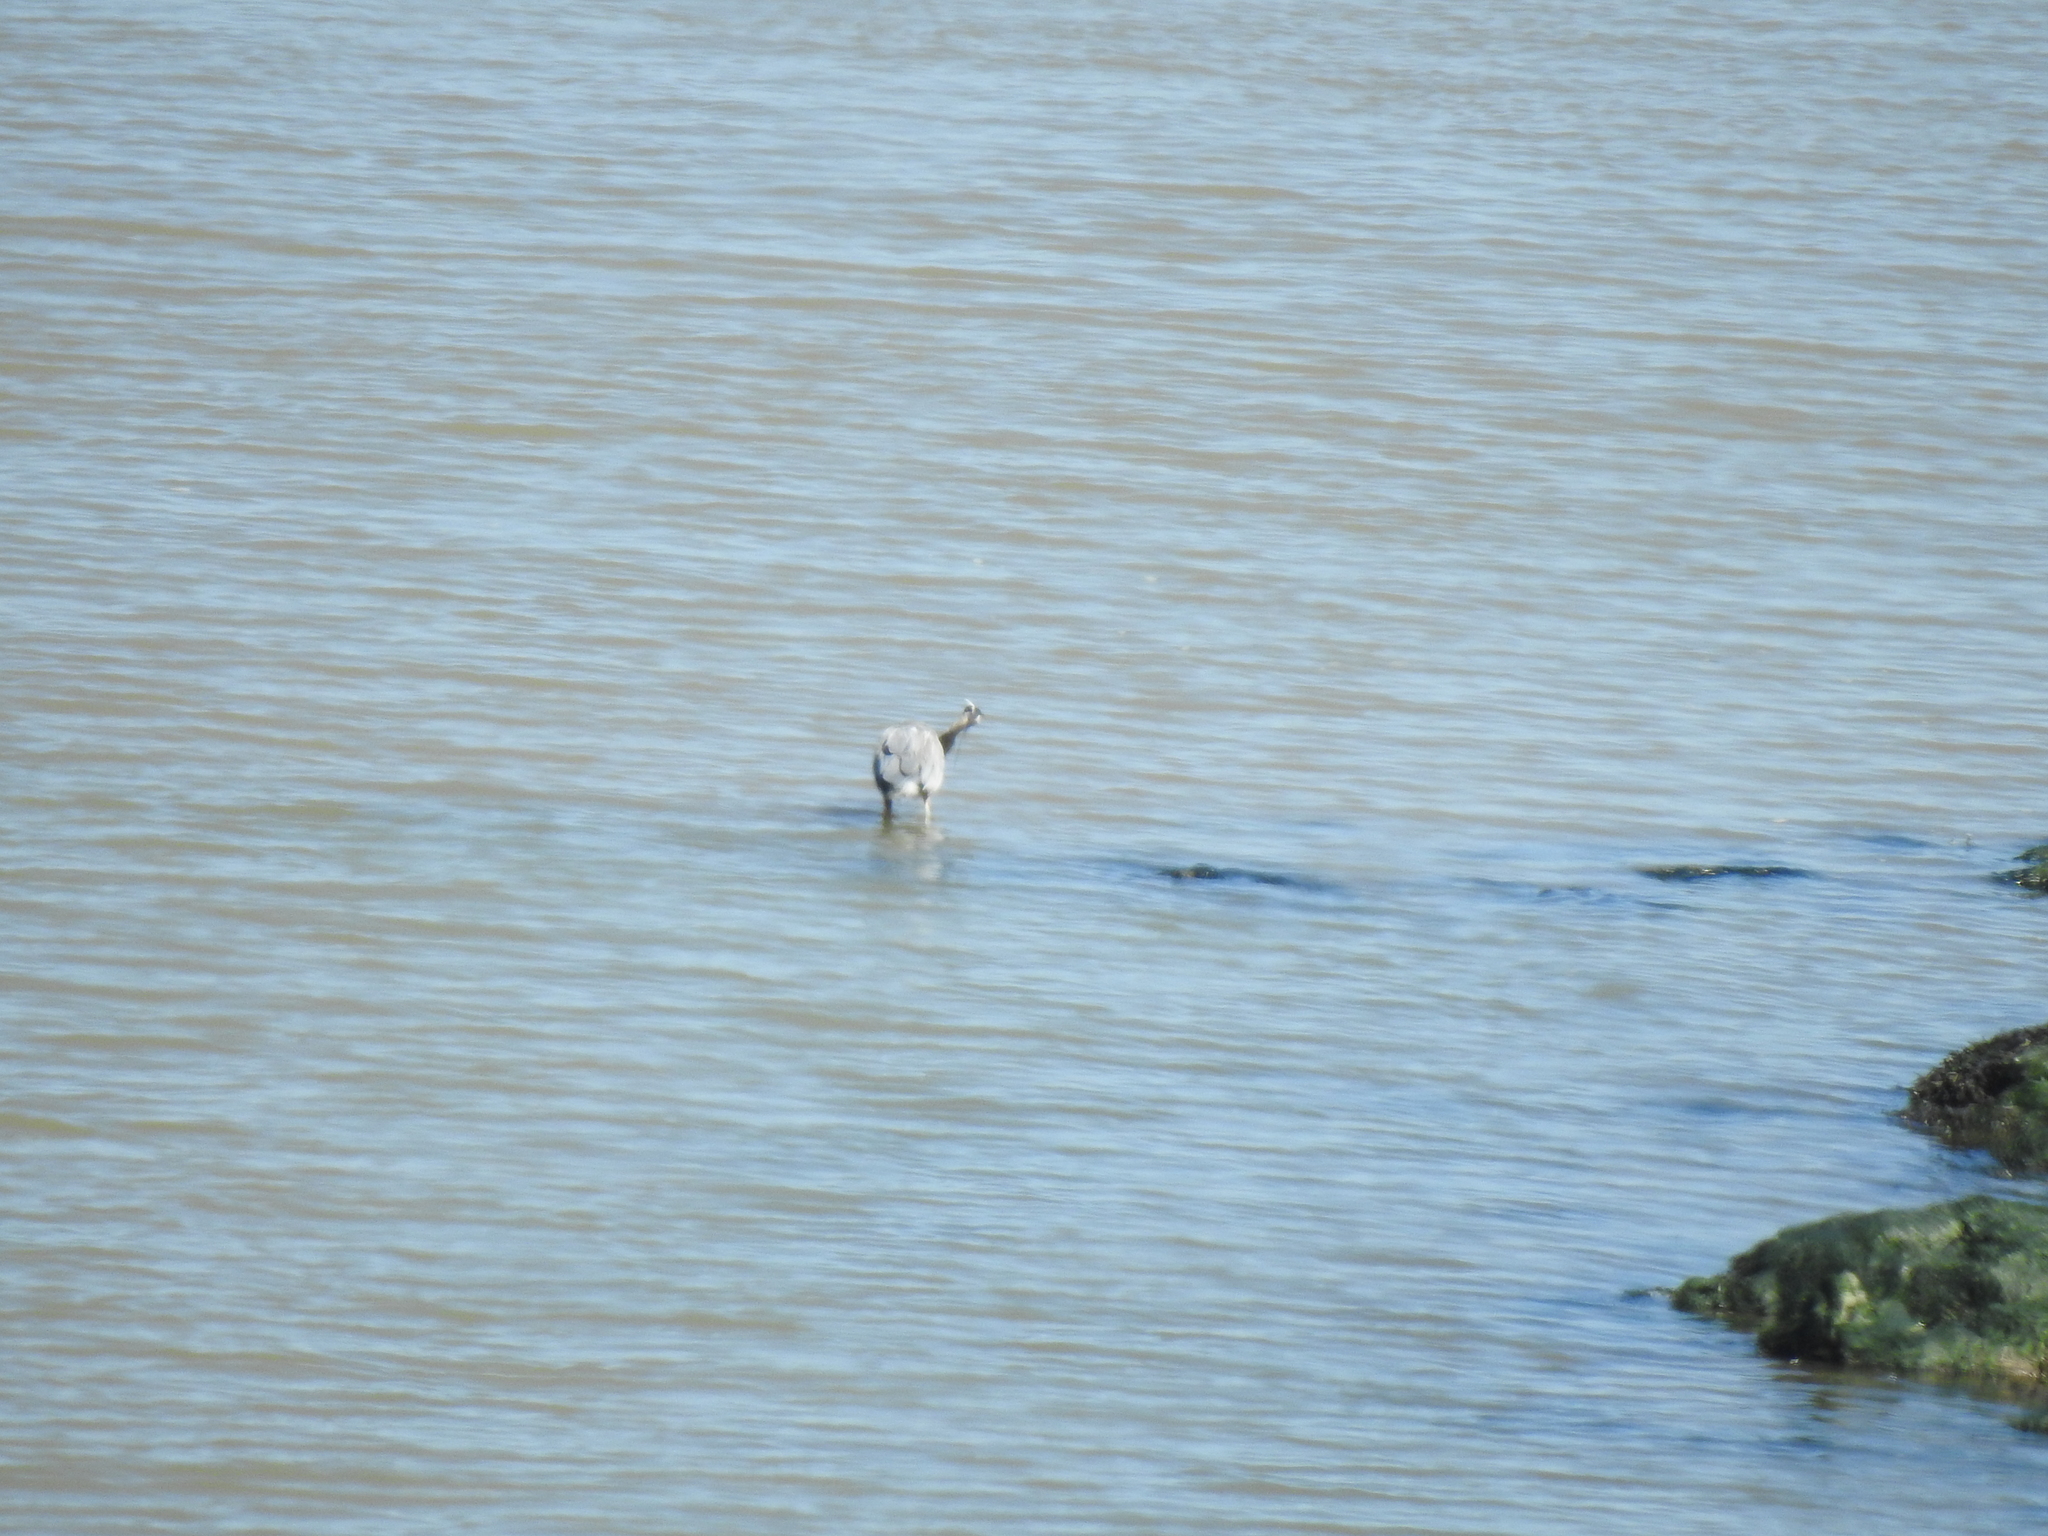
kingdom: Animalia
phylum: Chordata
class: Aves
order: Pelecaniformes
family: Ardeidae
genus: Ardea
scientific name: Ardea herodias
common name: Great blue heron
